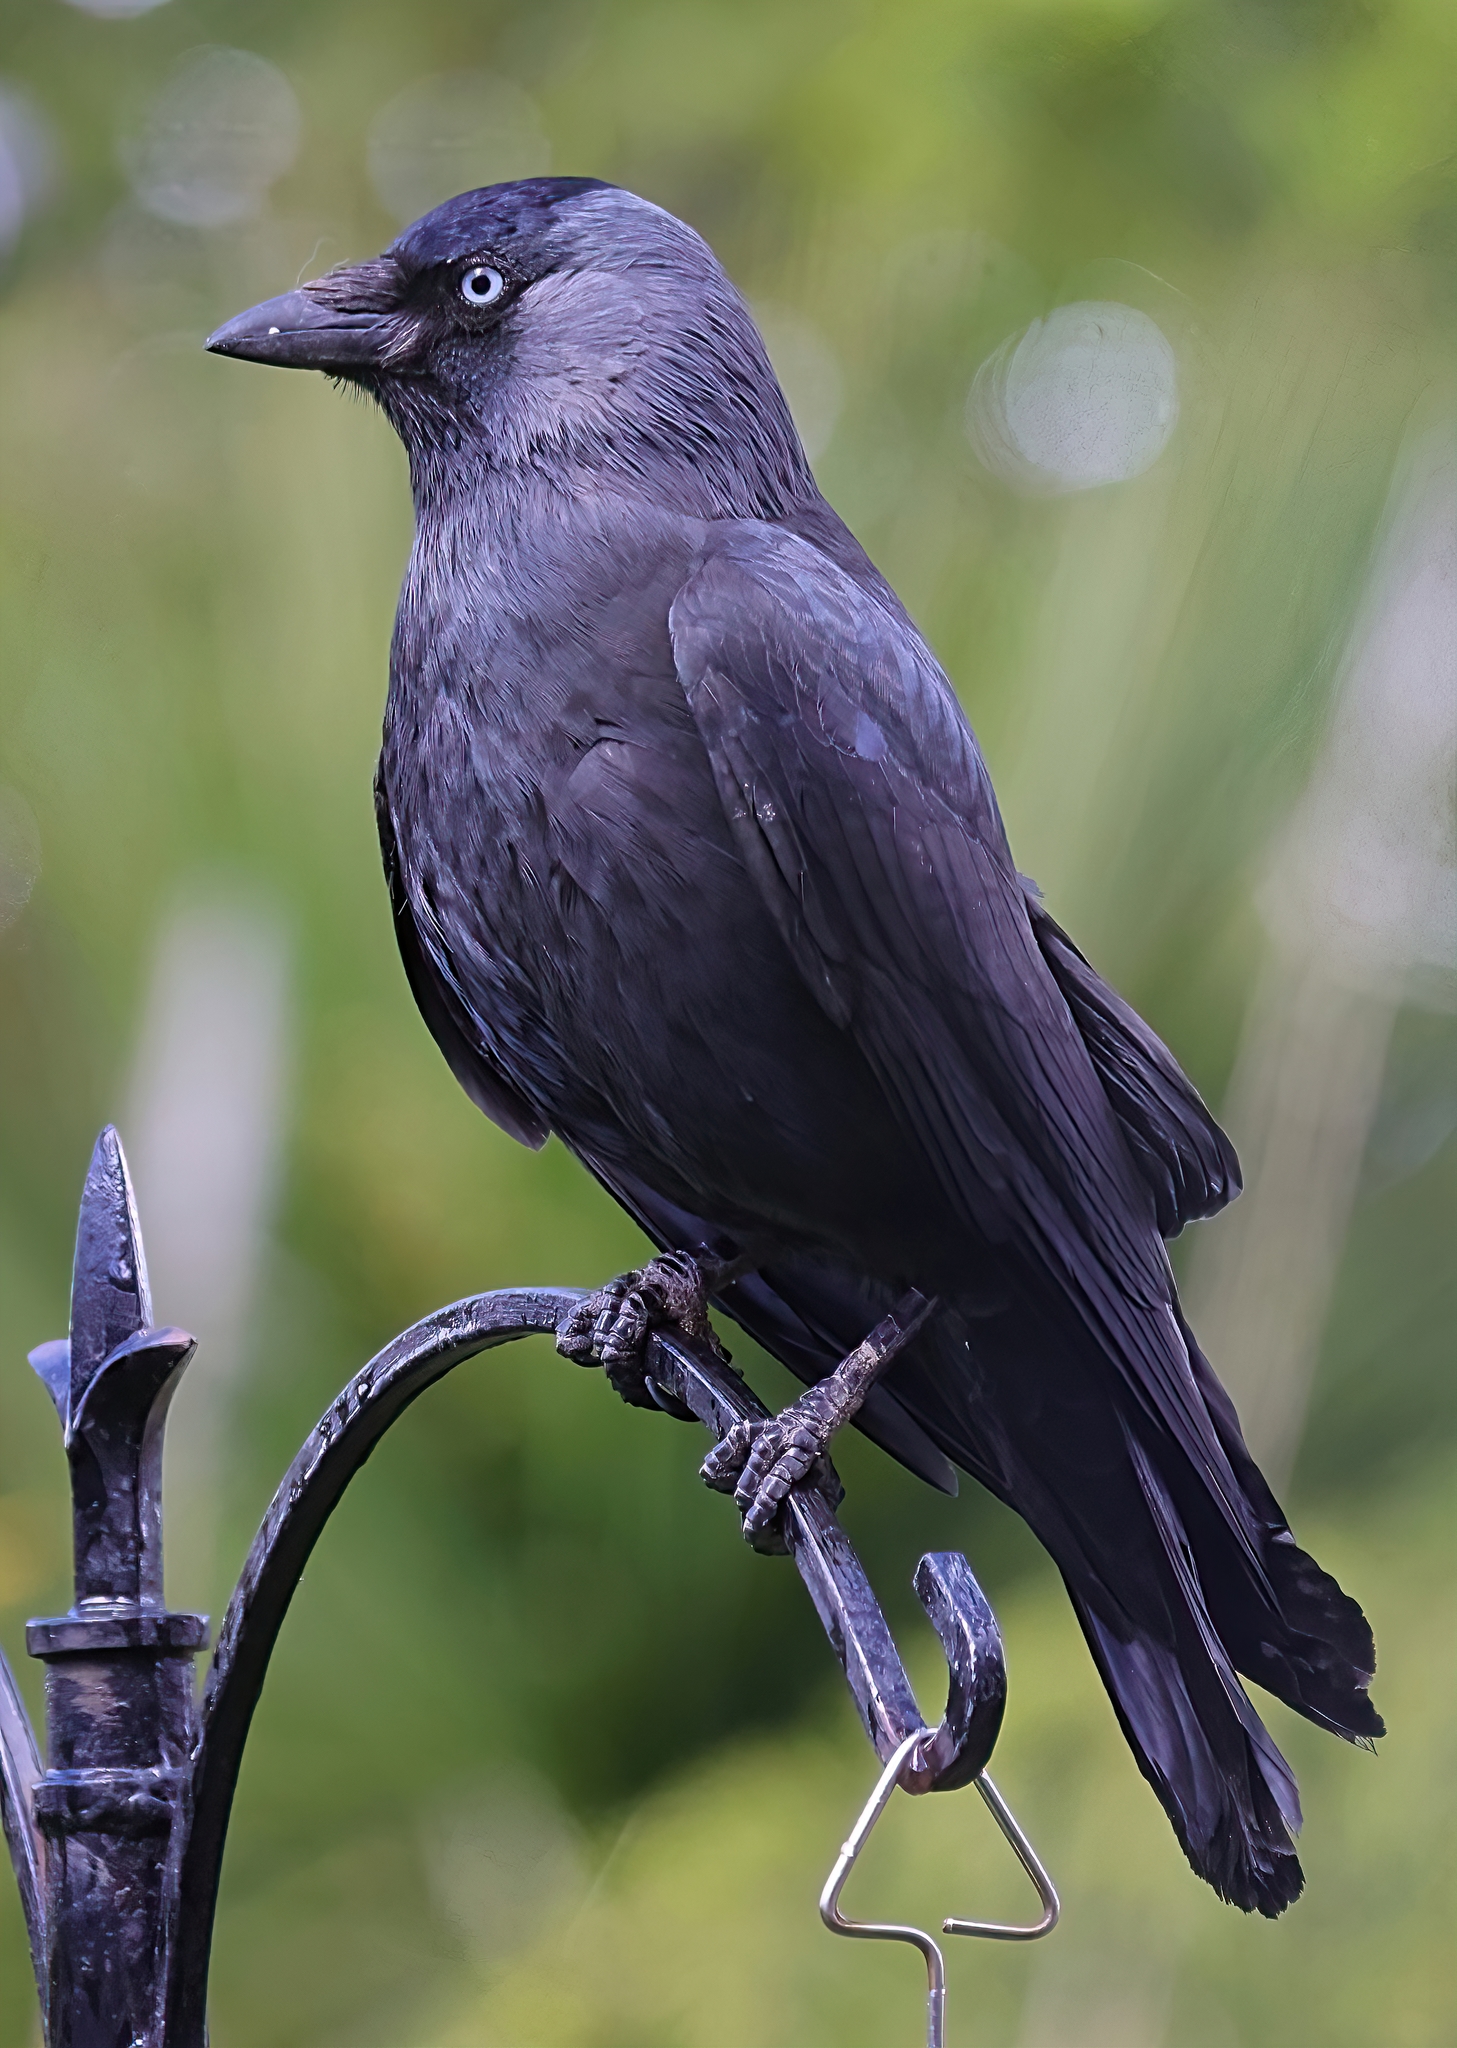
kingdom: Animalia
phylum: Chordata
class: Aves
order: Passeriformes
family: Corvidae
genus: Coloeus
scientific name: Coloeus monedula
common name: Western jackdaw
